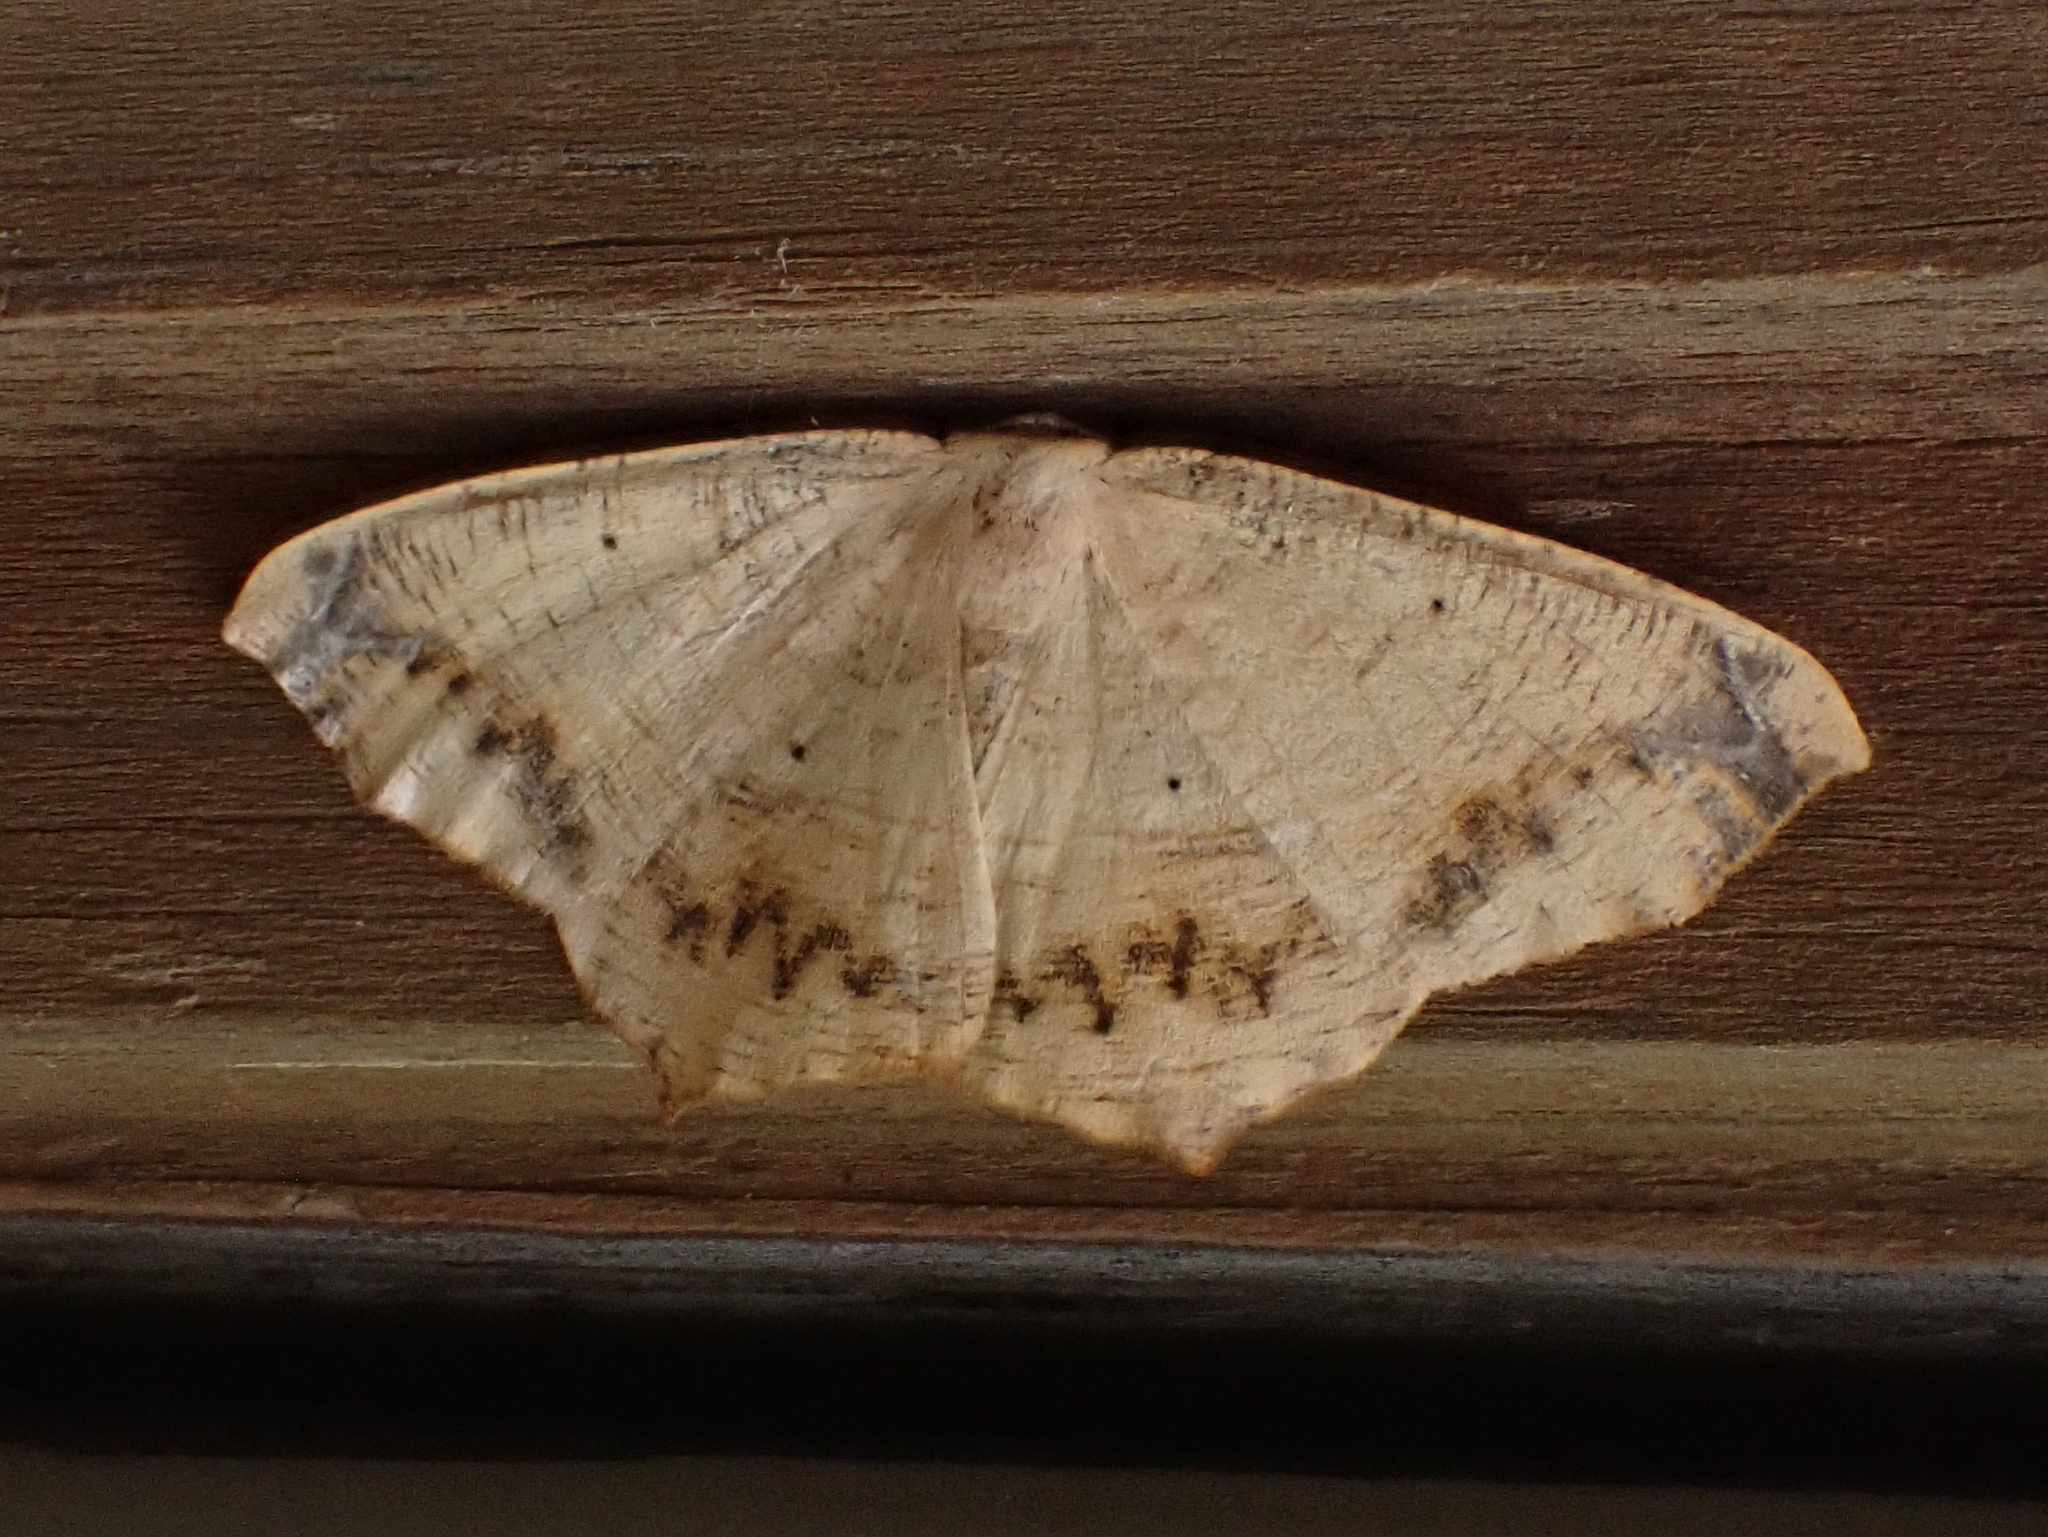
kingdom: Animalia
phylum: Arthropoda
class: Insecta
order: Lepidoptera
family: Geometridae
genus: Prochoerodes
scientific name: Prochoerodes lineola
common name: Large maple spanworm
